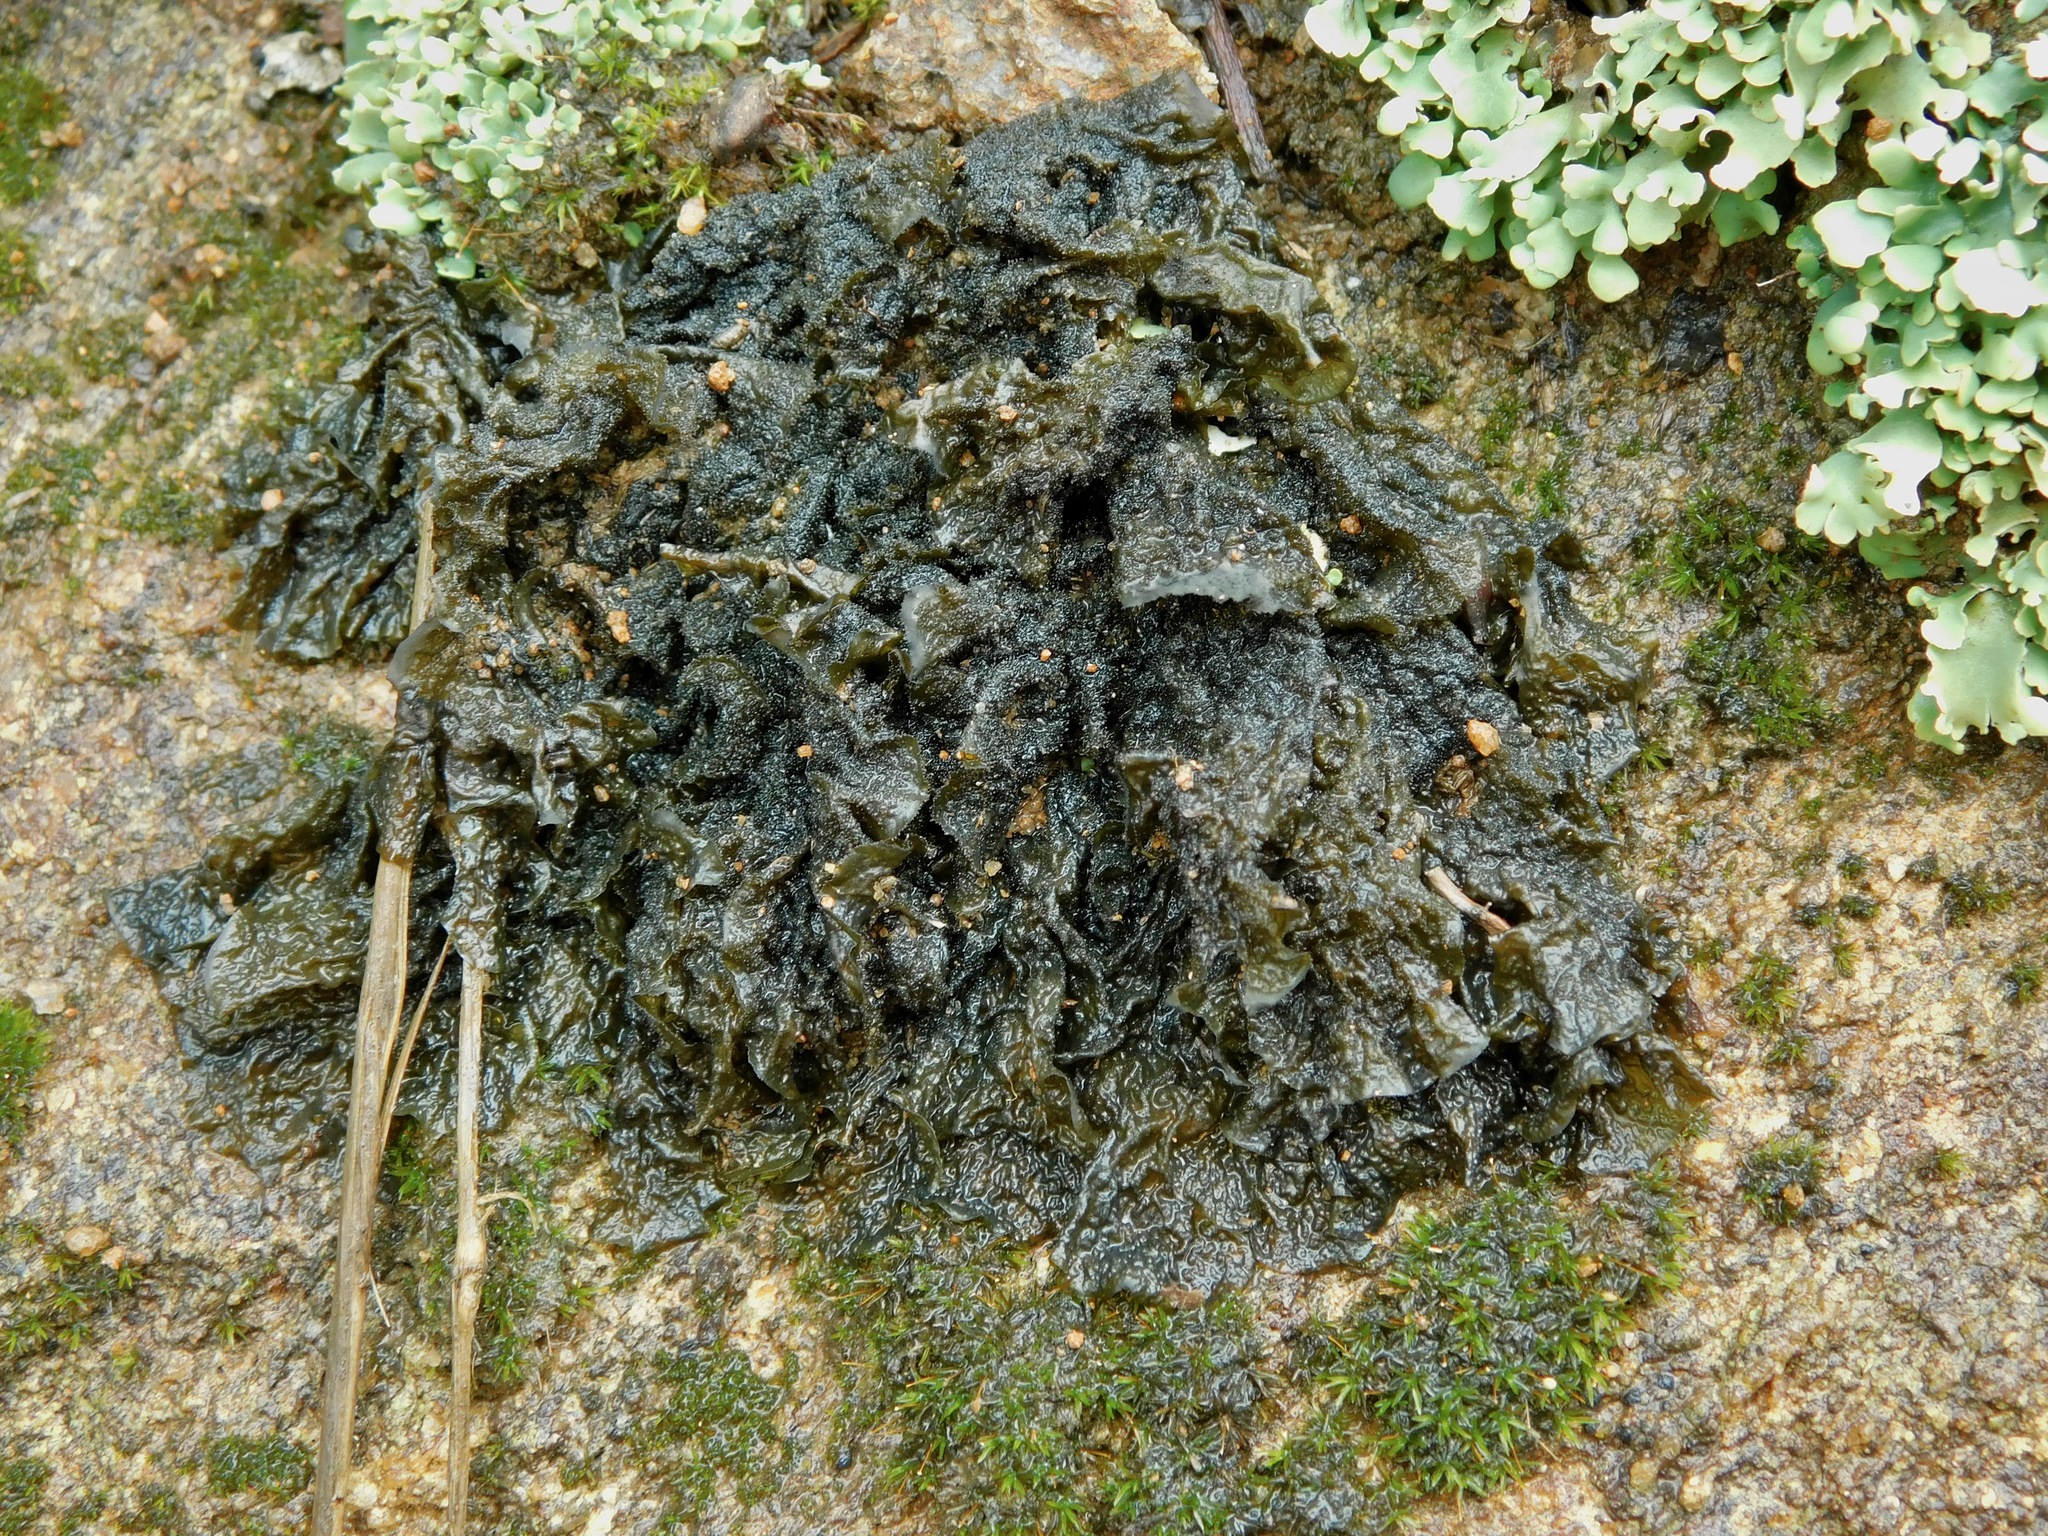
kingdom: Fungi
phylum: Ascomycota
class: Lecanoromycetes
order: Peltigerales
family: Collemataceae
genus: Collema
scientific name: Collema furfuraceum
